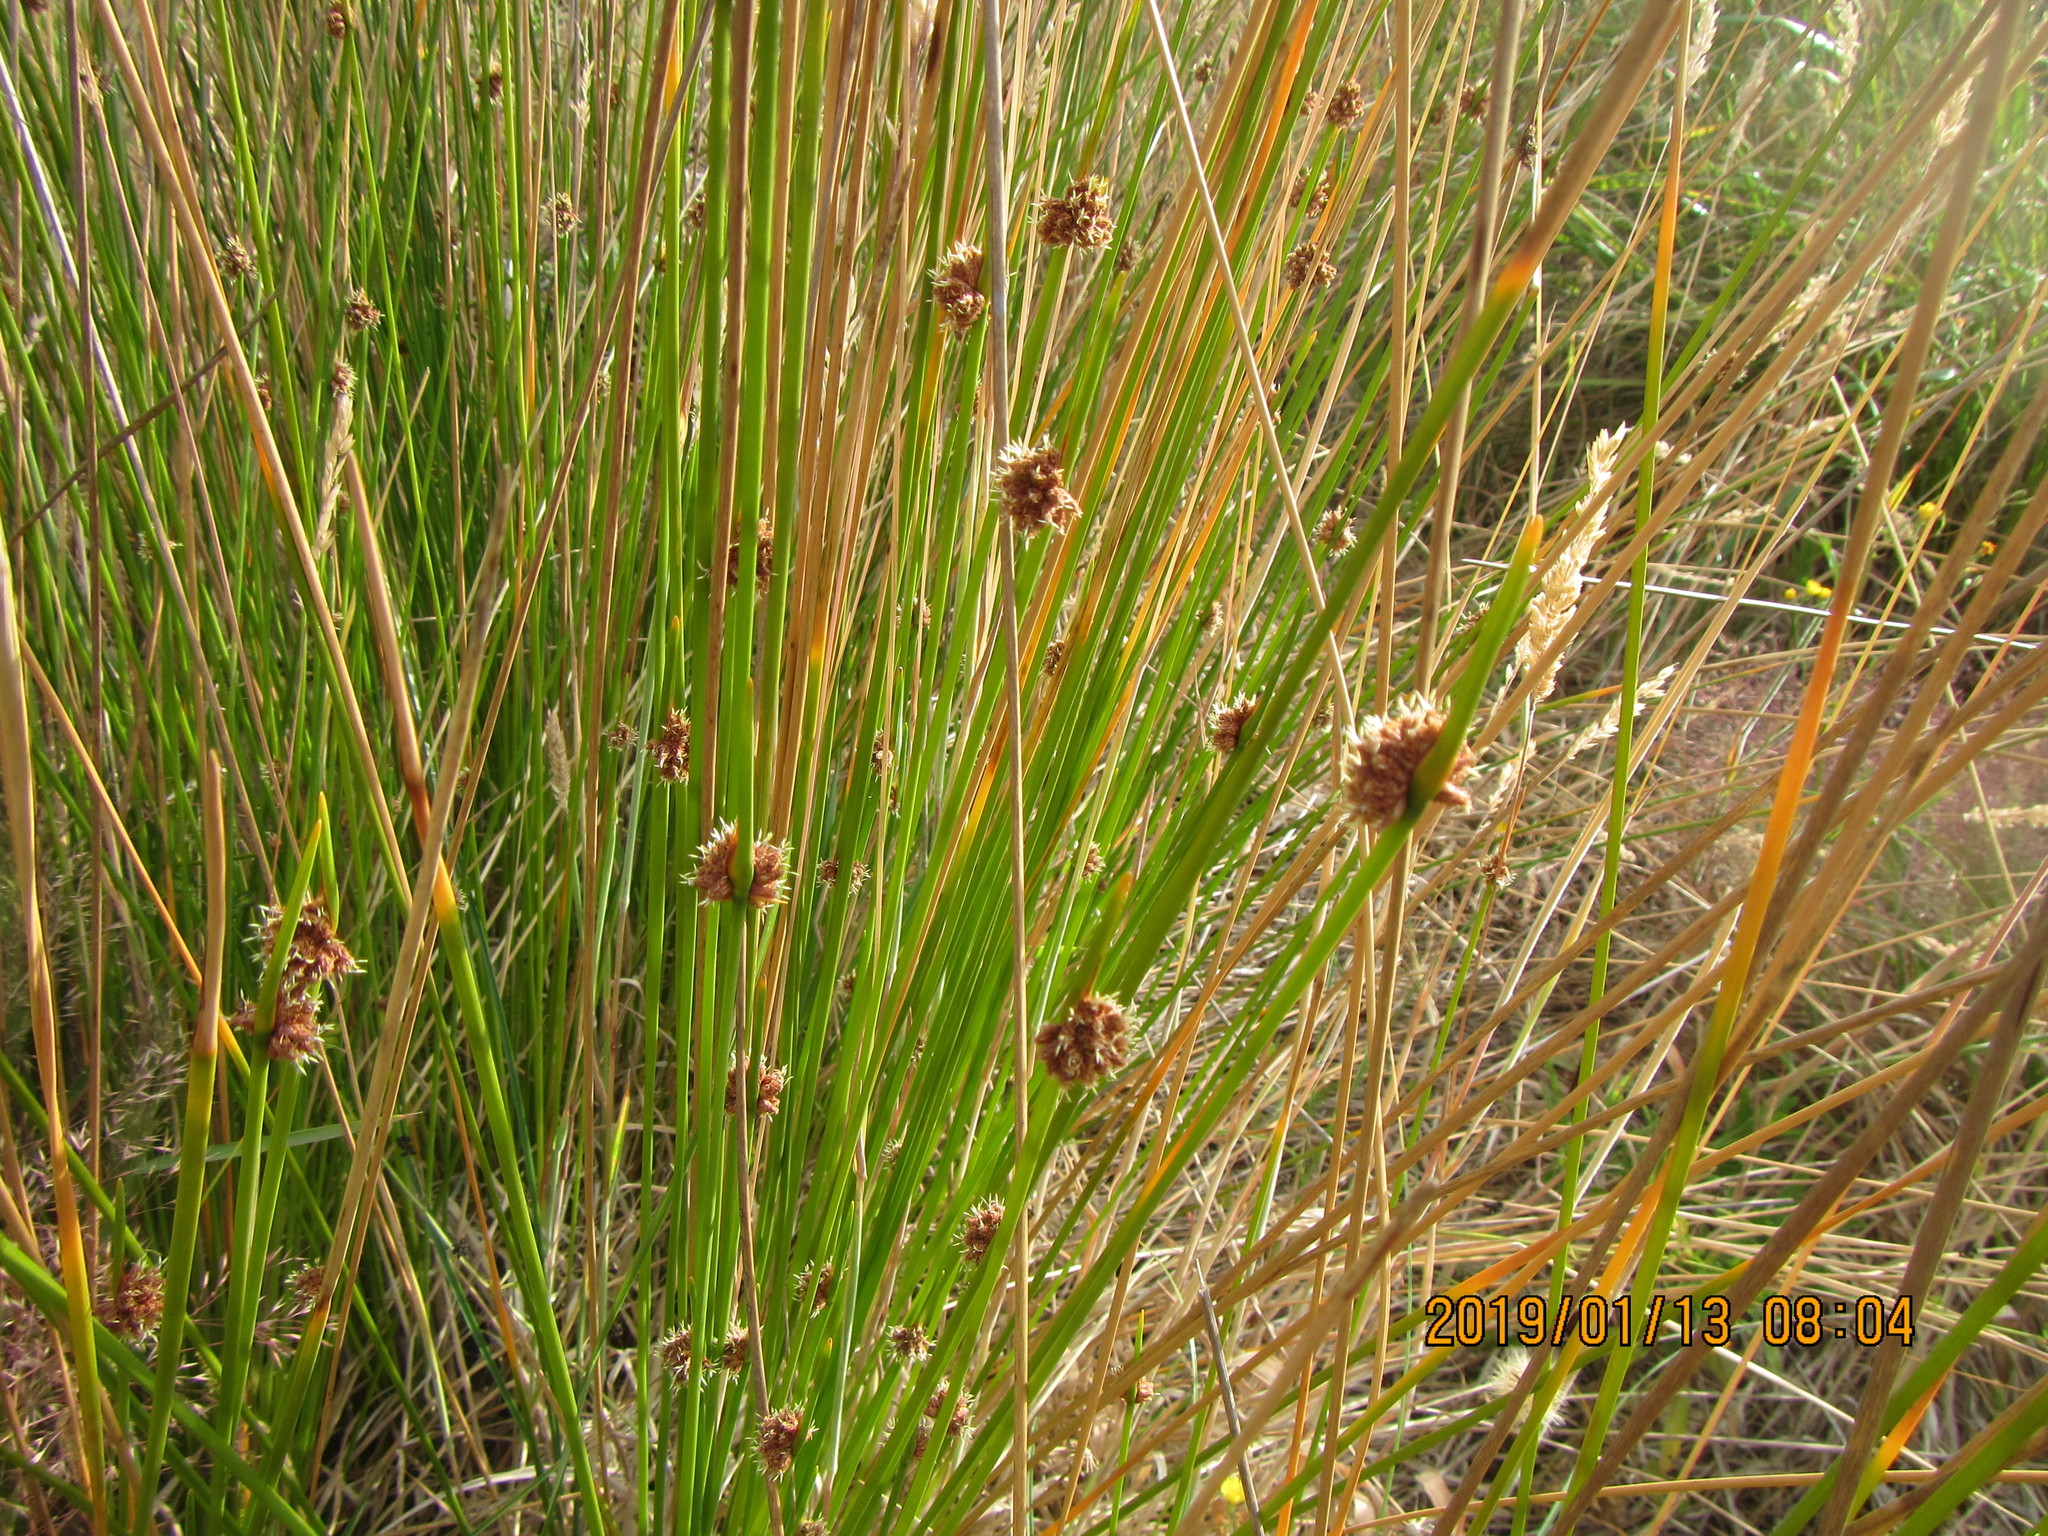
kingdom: Plantae
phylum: Tracheophyta
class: Liliopsida
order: Poales
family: Cyperaceae
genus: Ficinia
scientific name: Ficinia nodosa
